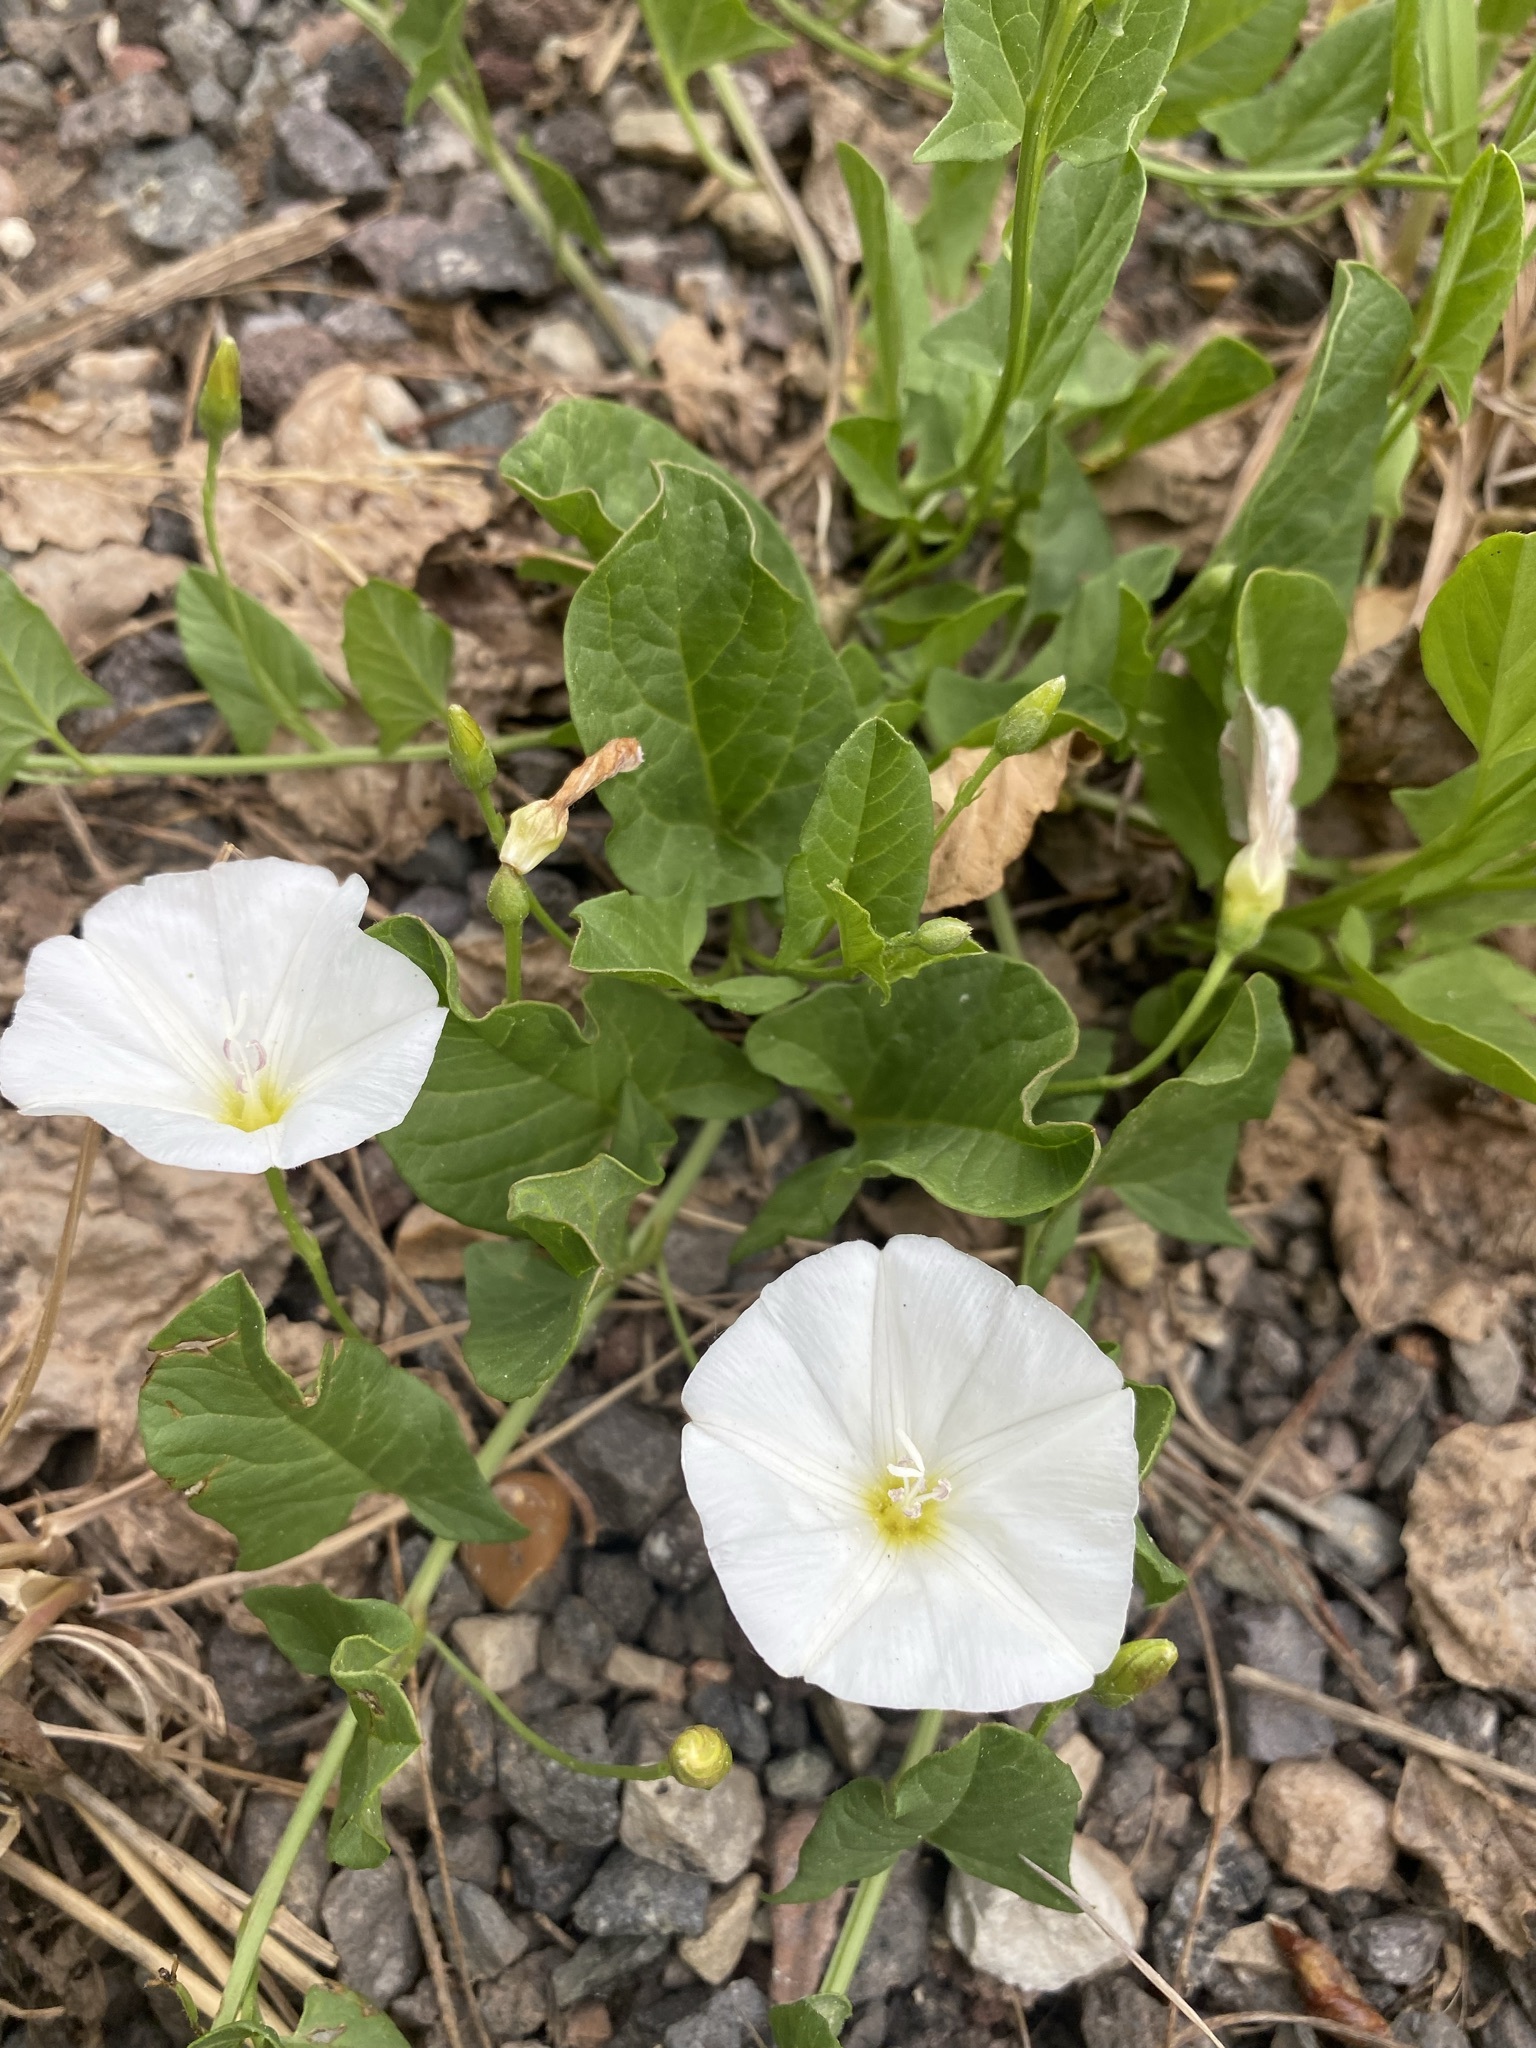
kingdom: Plantae
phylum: Tracheophyta
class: Magnoliopsida
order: Solanales
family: Convolvulaceae
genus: Convolvulus
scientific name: Convolvulus arvensis
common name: Field bindweed
